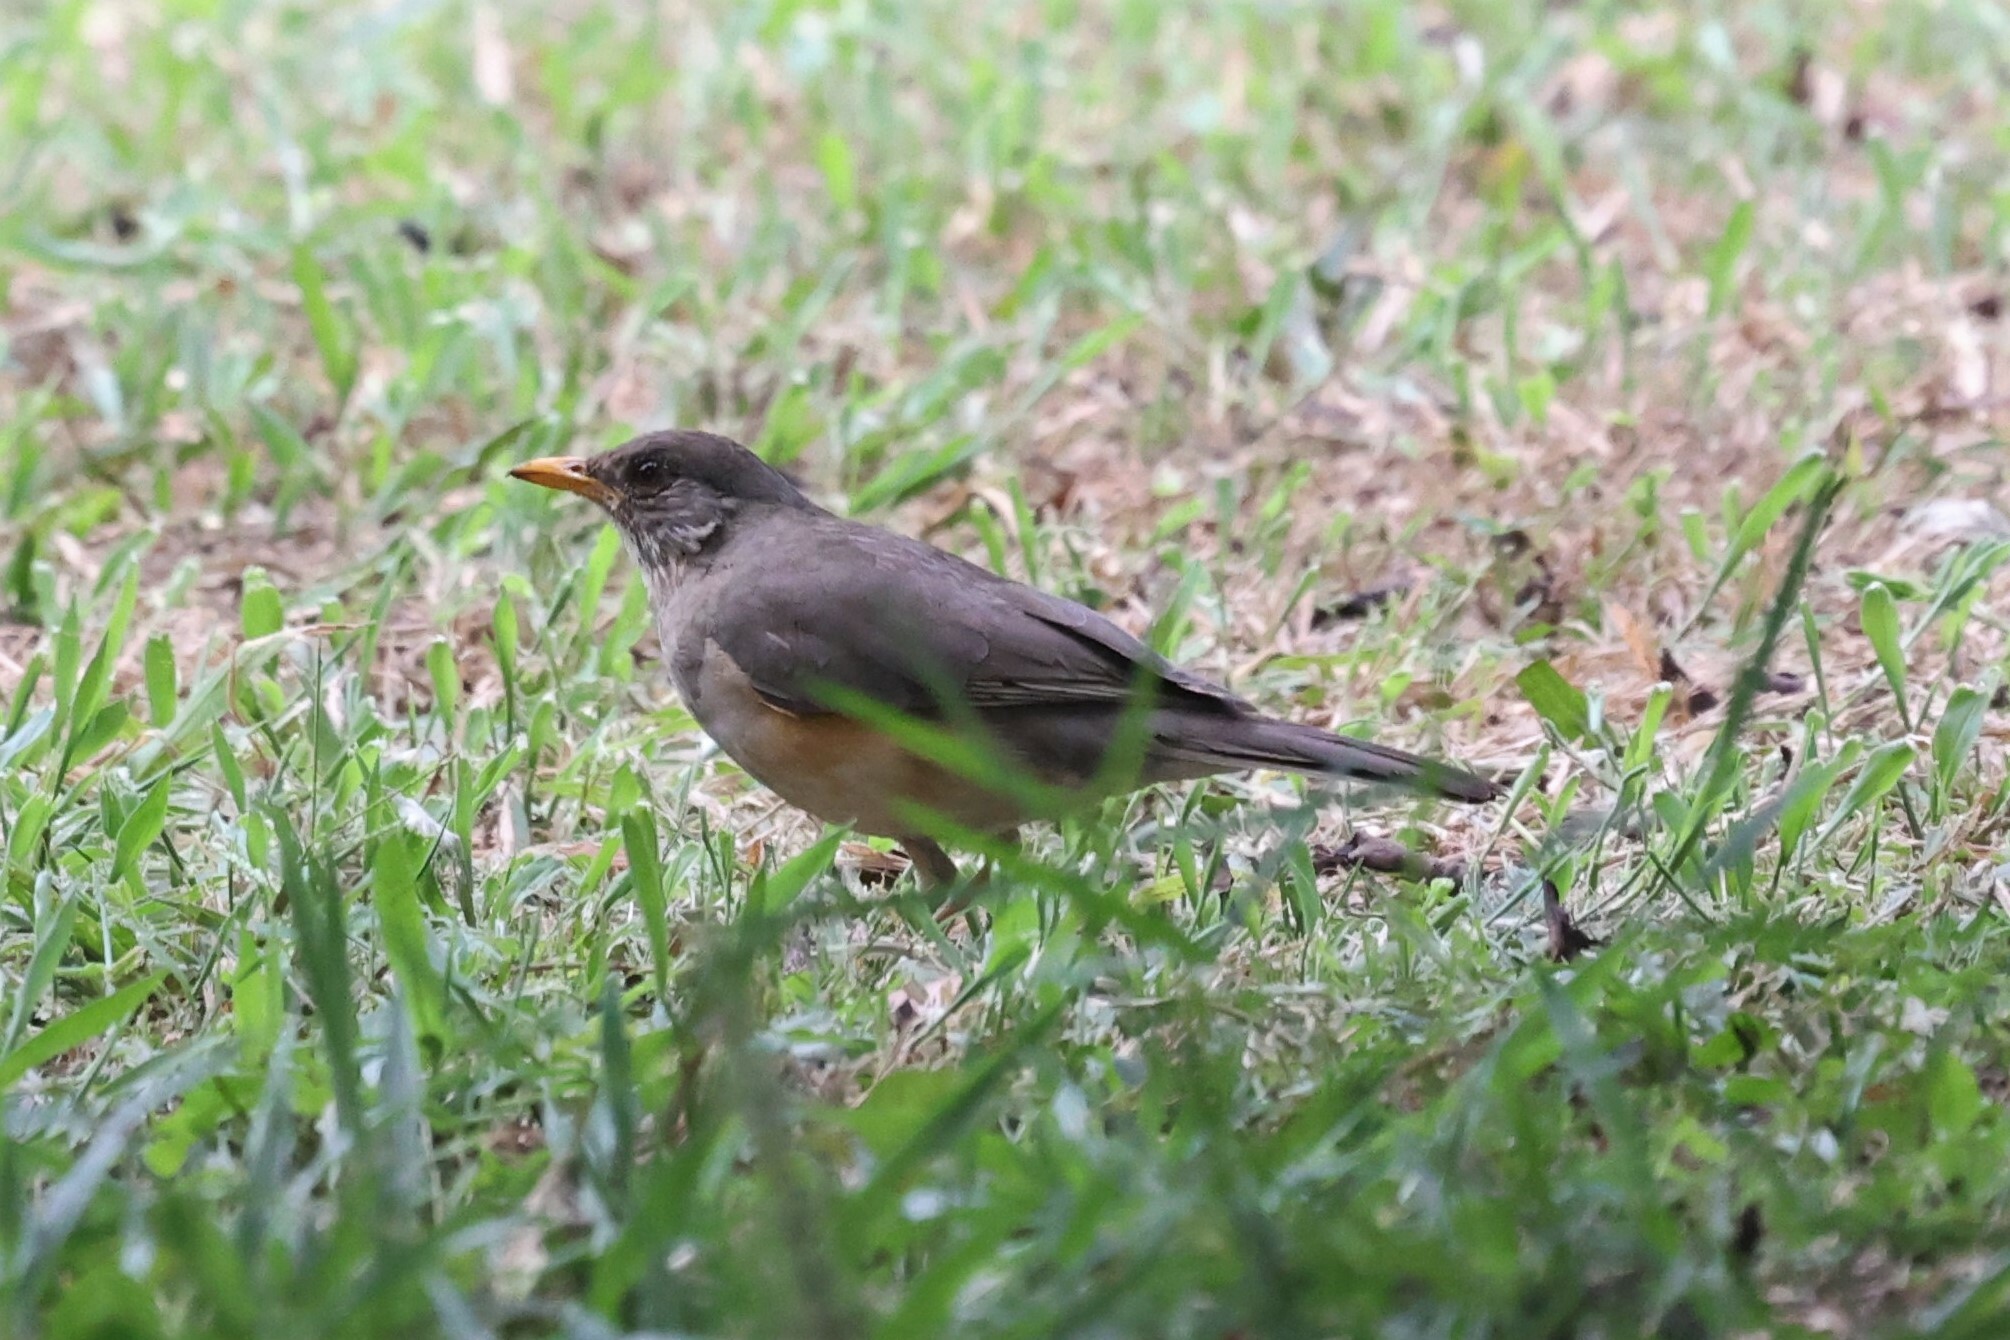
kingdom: Animalia
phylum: Chordata
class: Aves
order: Passeriformes
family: Turdidae
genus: Turdus
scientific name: Turdus pelios
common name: African thrush
